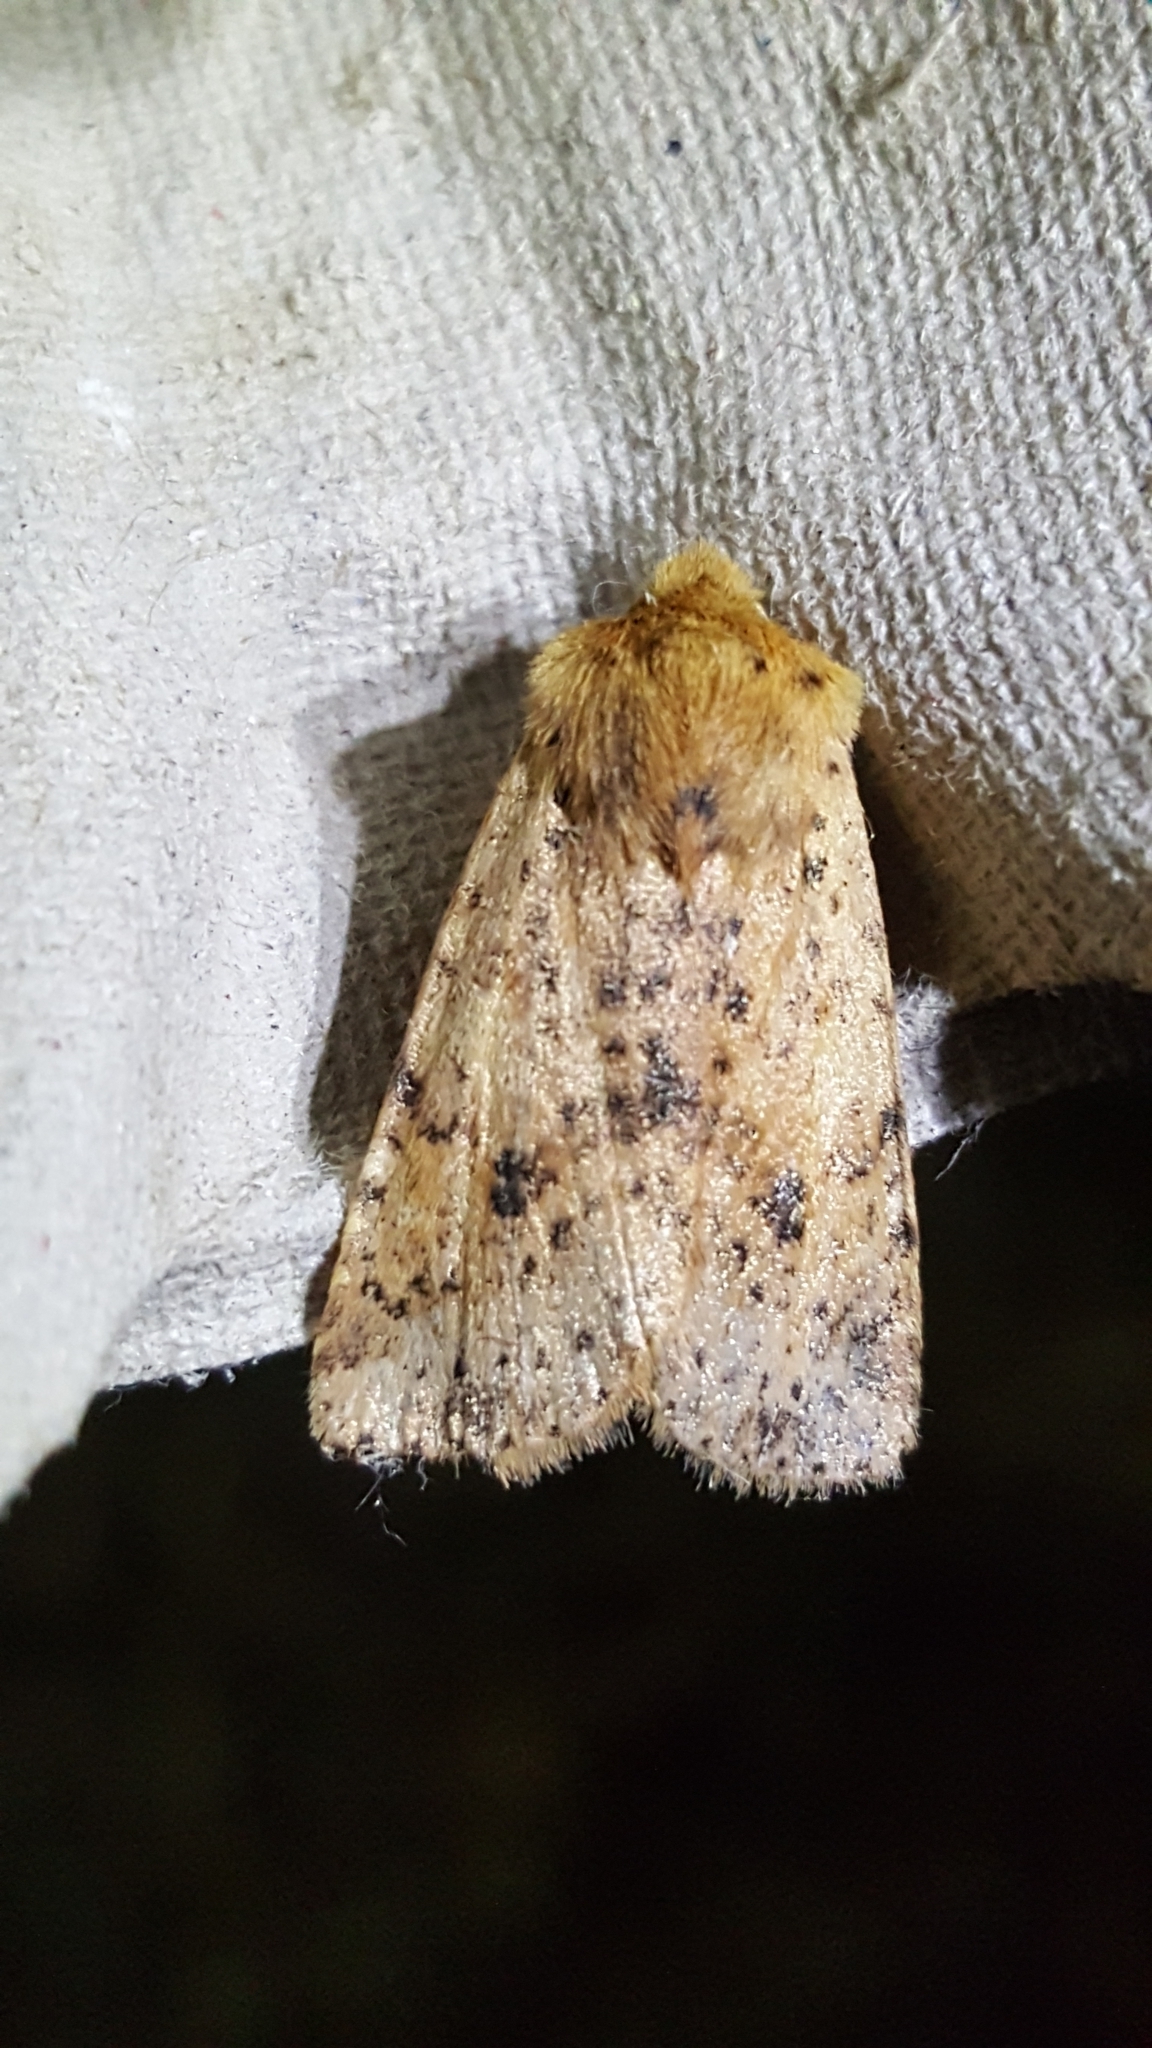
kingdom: Animalia
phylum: Arthropoda
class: Insecta
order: Lepidoptera
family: Noctuidae
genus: Conistra
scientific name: Conistra rubiginea
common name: Dotted chestnut
